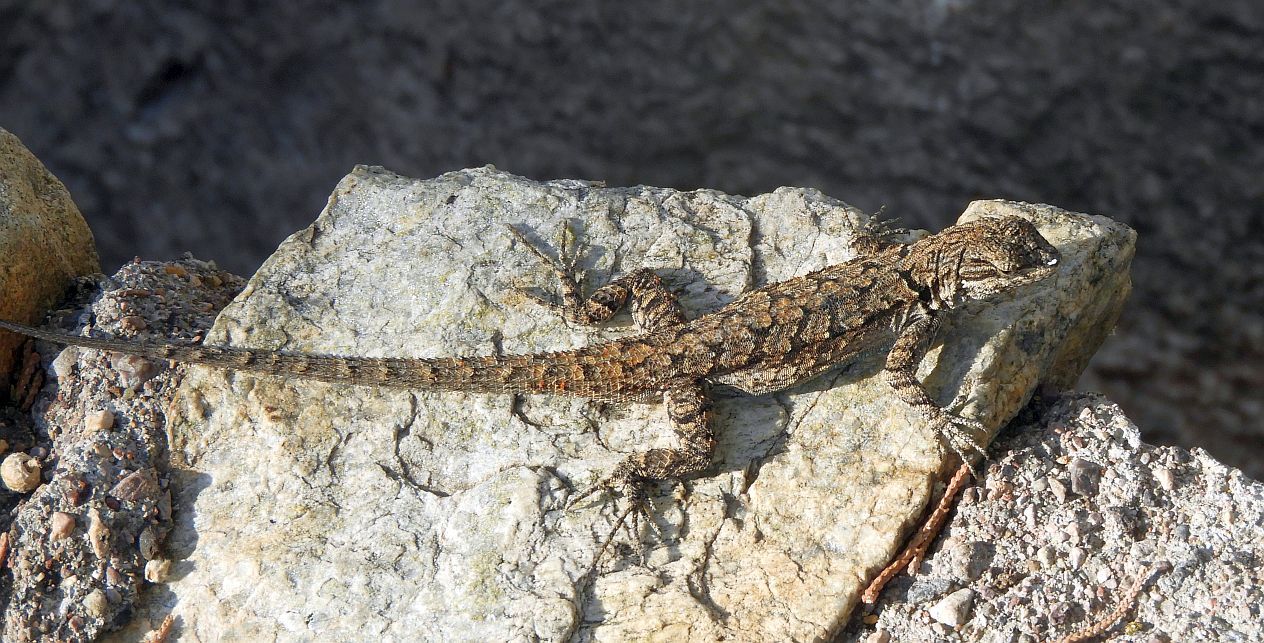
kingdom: Animalia
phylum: Chordata
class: Squamata
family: Phrynosomatidae
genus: Urosaurus
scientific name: Urosaurus ornatus
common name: Ornate tree lizard
